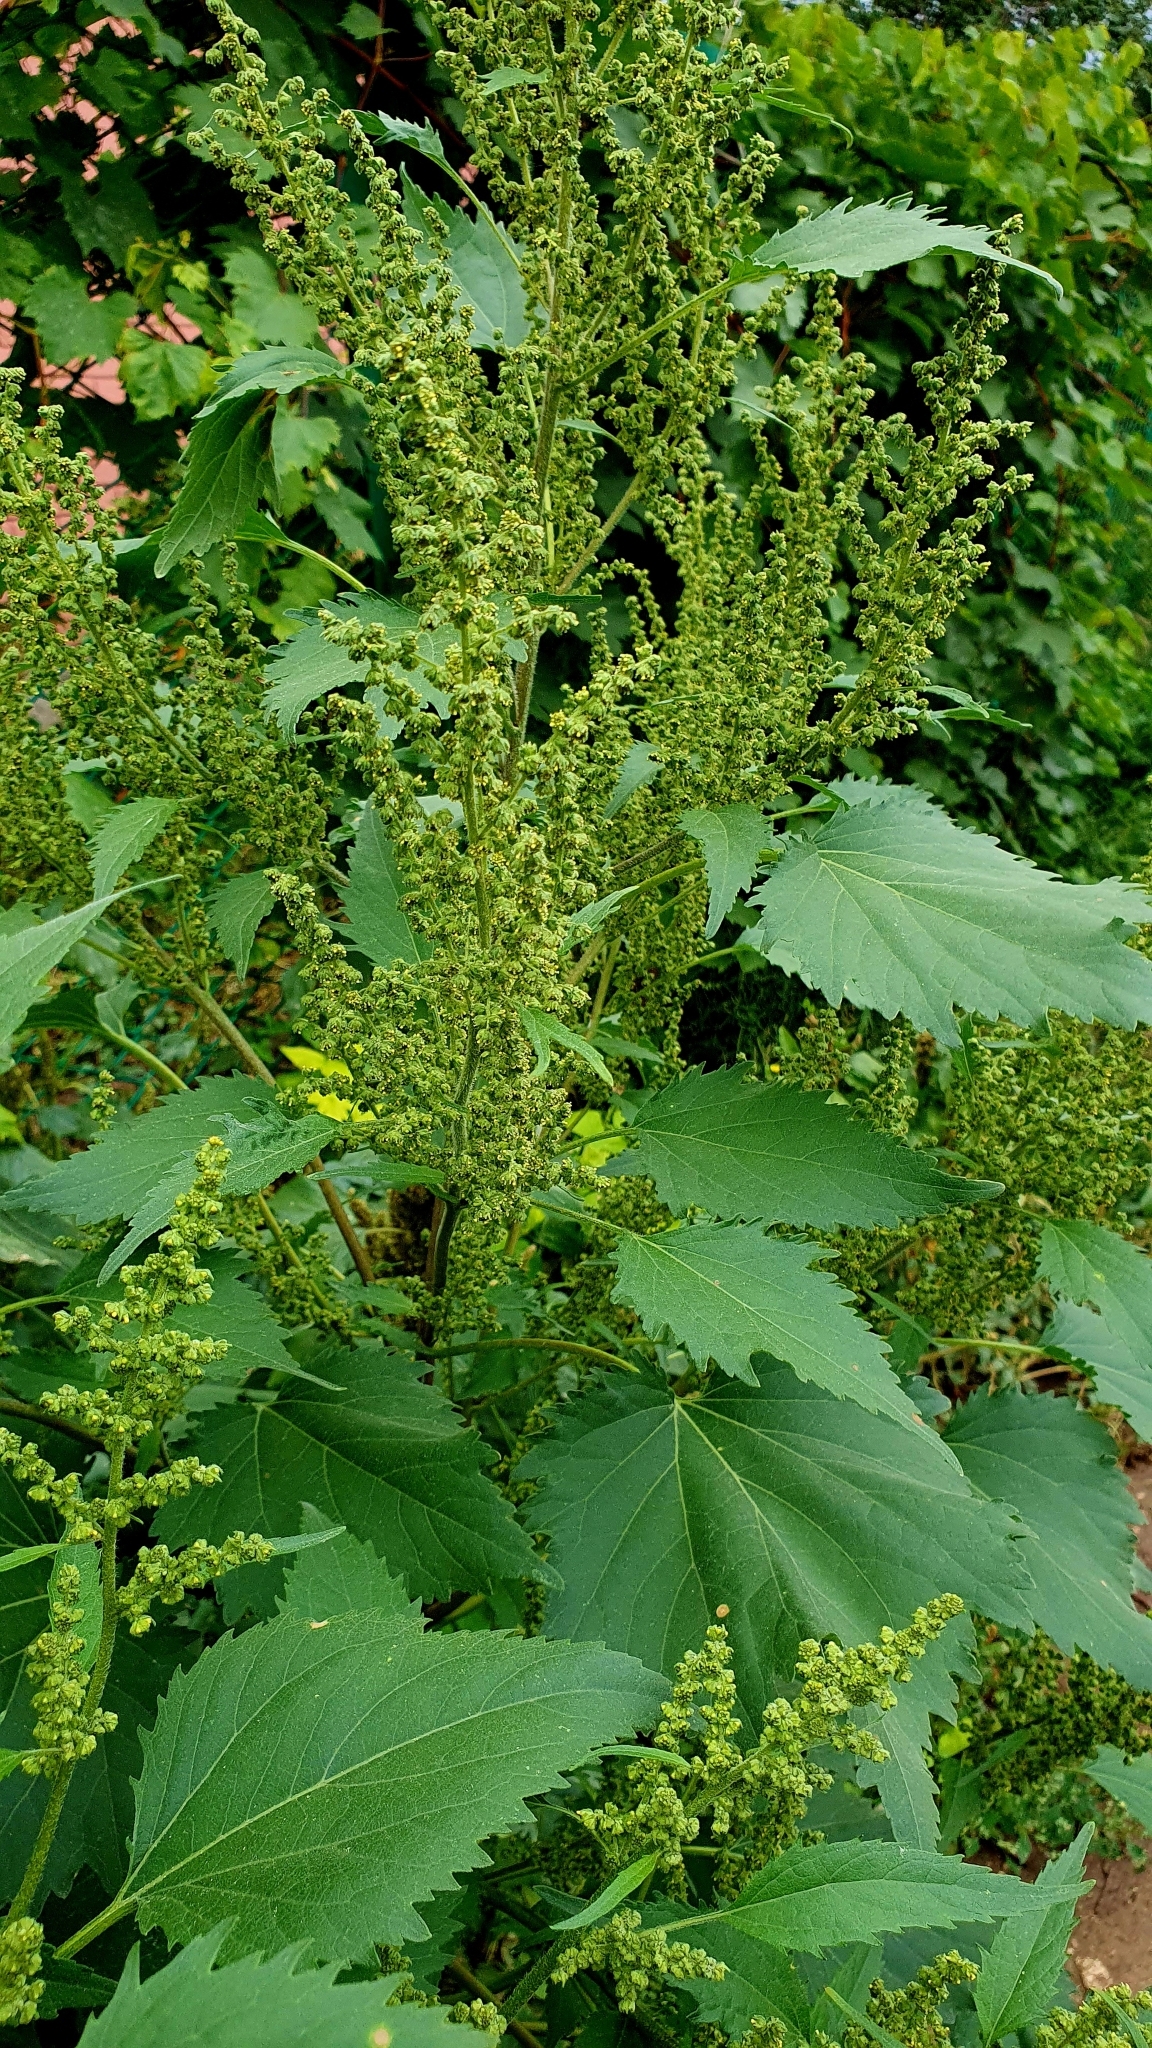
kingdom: Plantae
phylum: Tracheophyta
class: Magnoliopsida
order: Asterales
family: Asteraceae
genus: Cyclachaena
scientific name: Cyclachaena xanthiifolia
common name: Giant sumpweed
